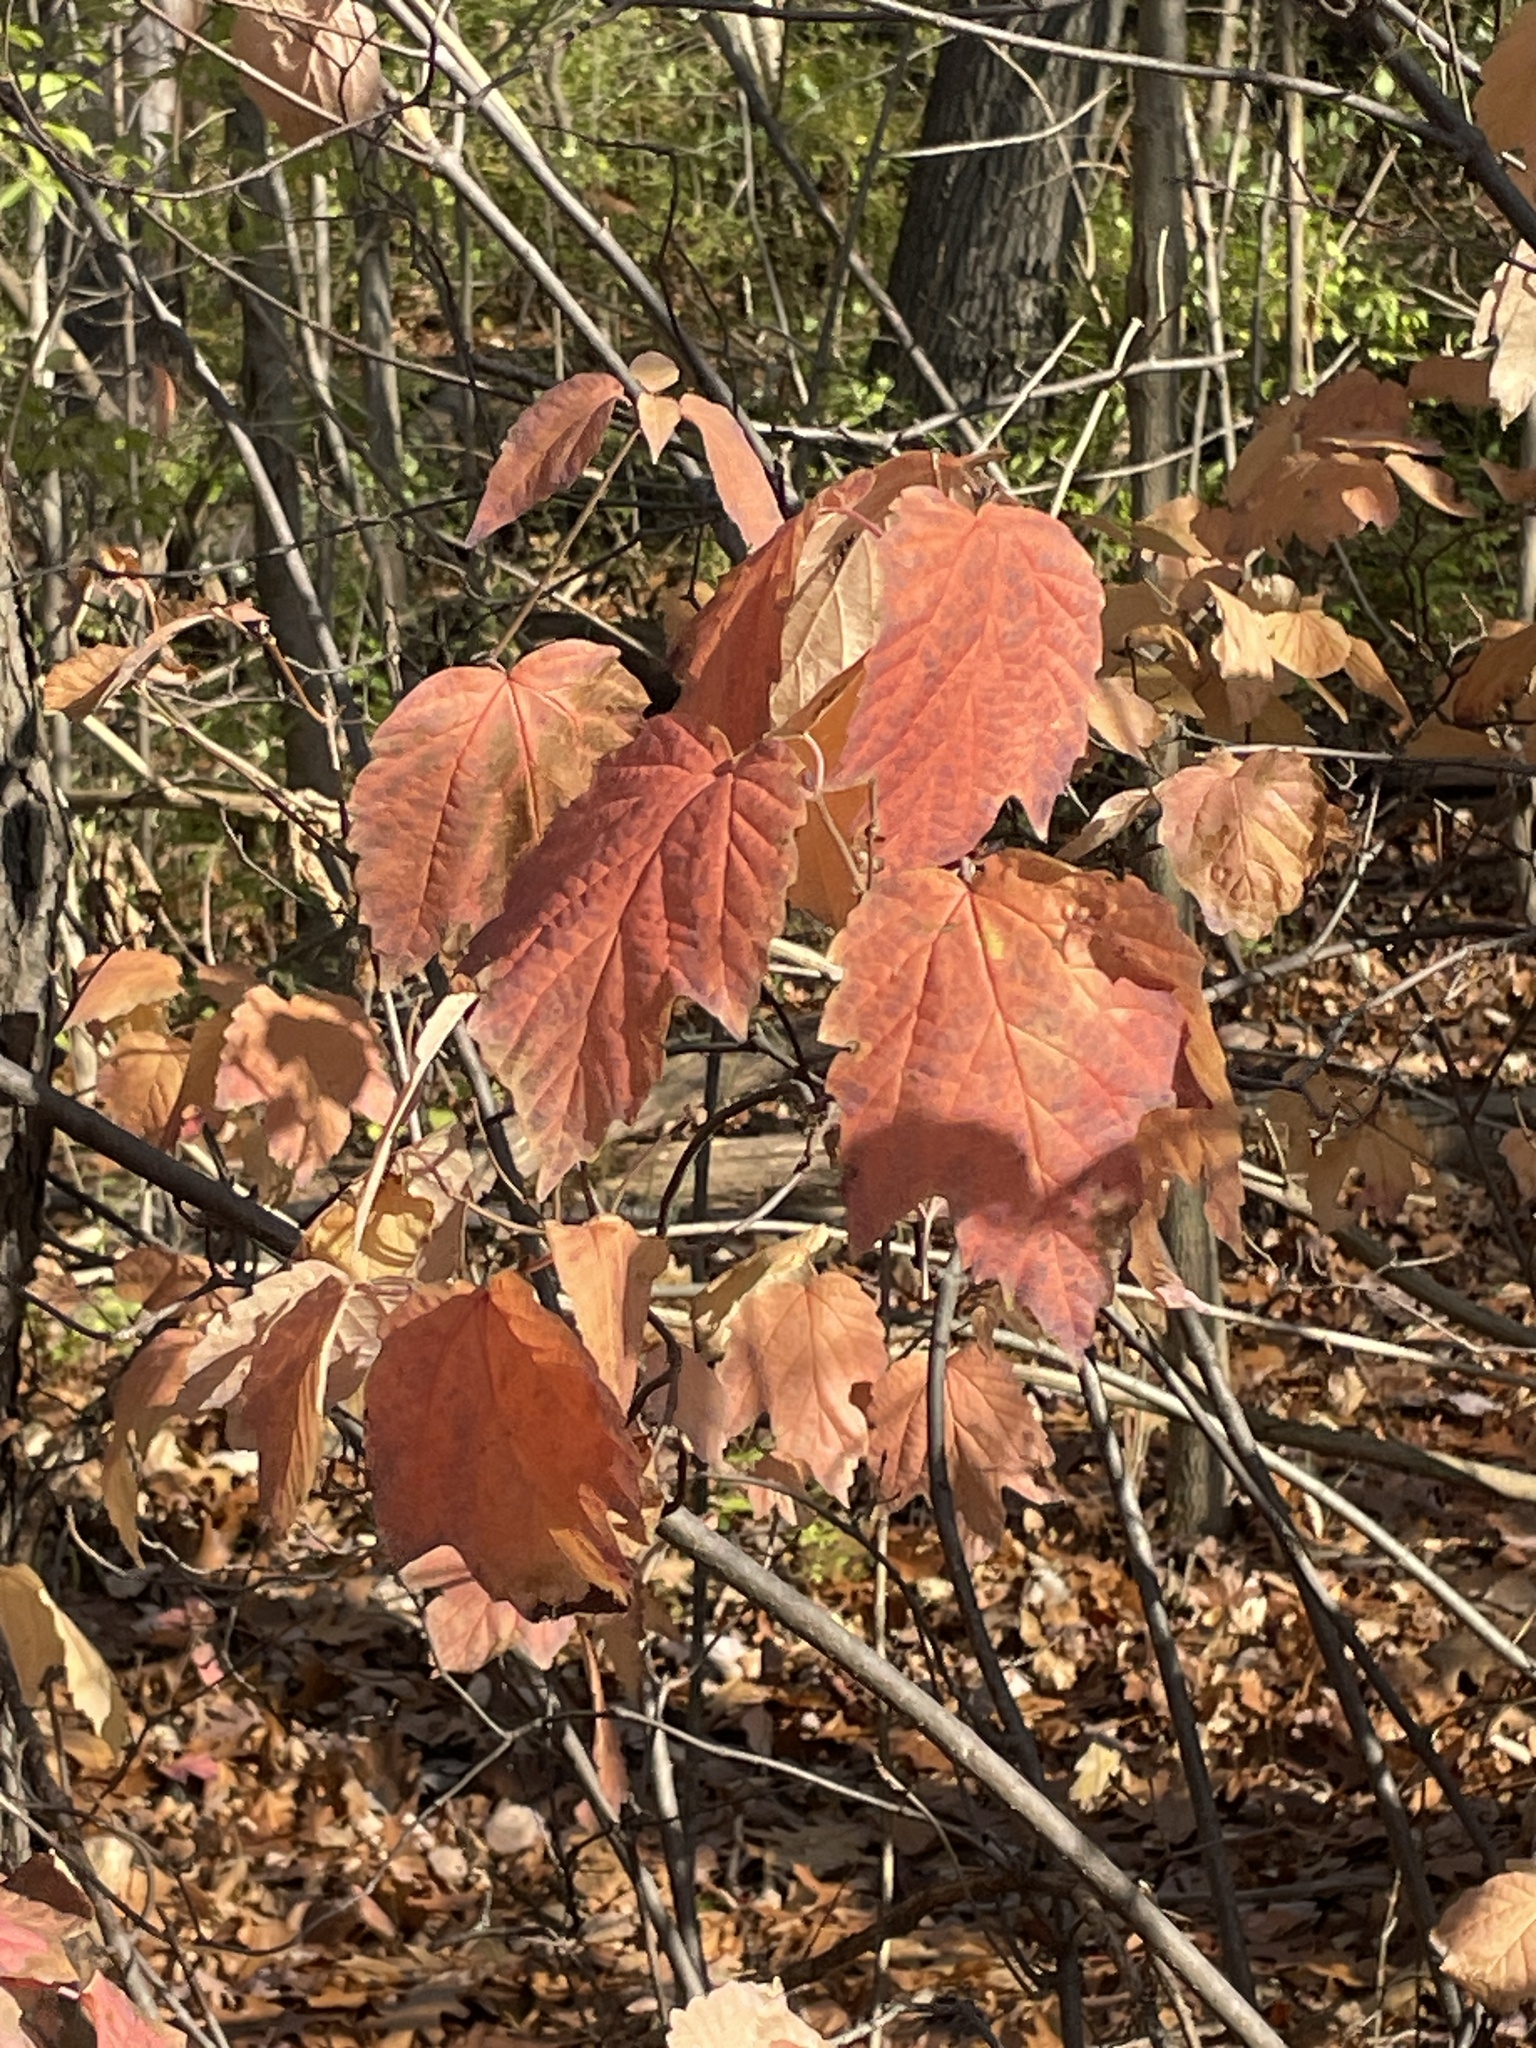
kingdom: Plantae
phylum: Tracheophyta
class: Magnoliopsida
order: Dipsacales
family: Viburnaceae
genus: Viburnum
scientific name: Viburnum acerifolium
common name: Dockmackie
